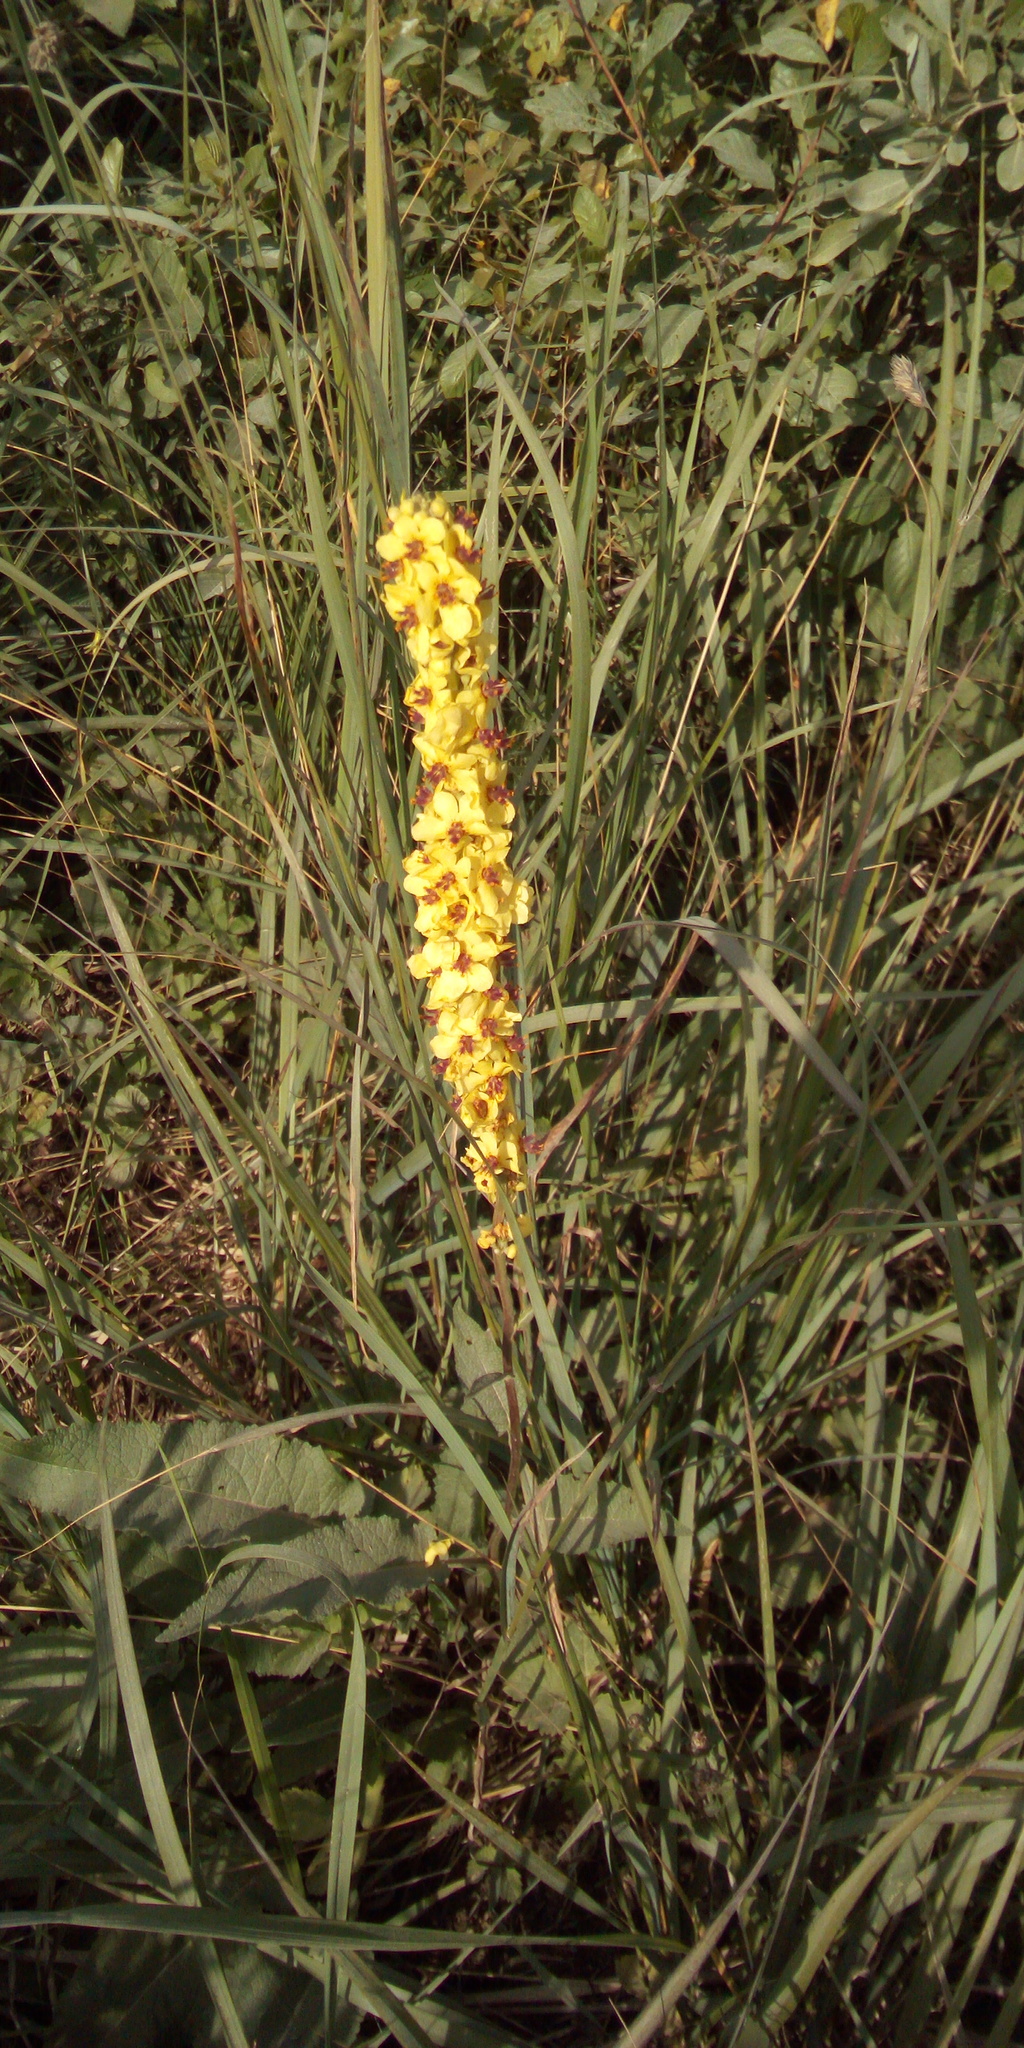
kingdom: Plantae
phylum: Tracheophyta
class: Magnoliopsida
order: Lamiales
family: Scrophulariaceae
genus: Verbascum
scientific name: Verbascum nigrum
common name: Dark mullein
